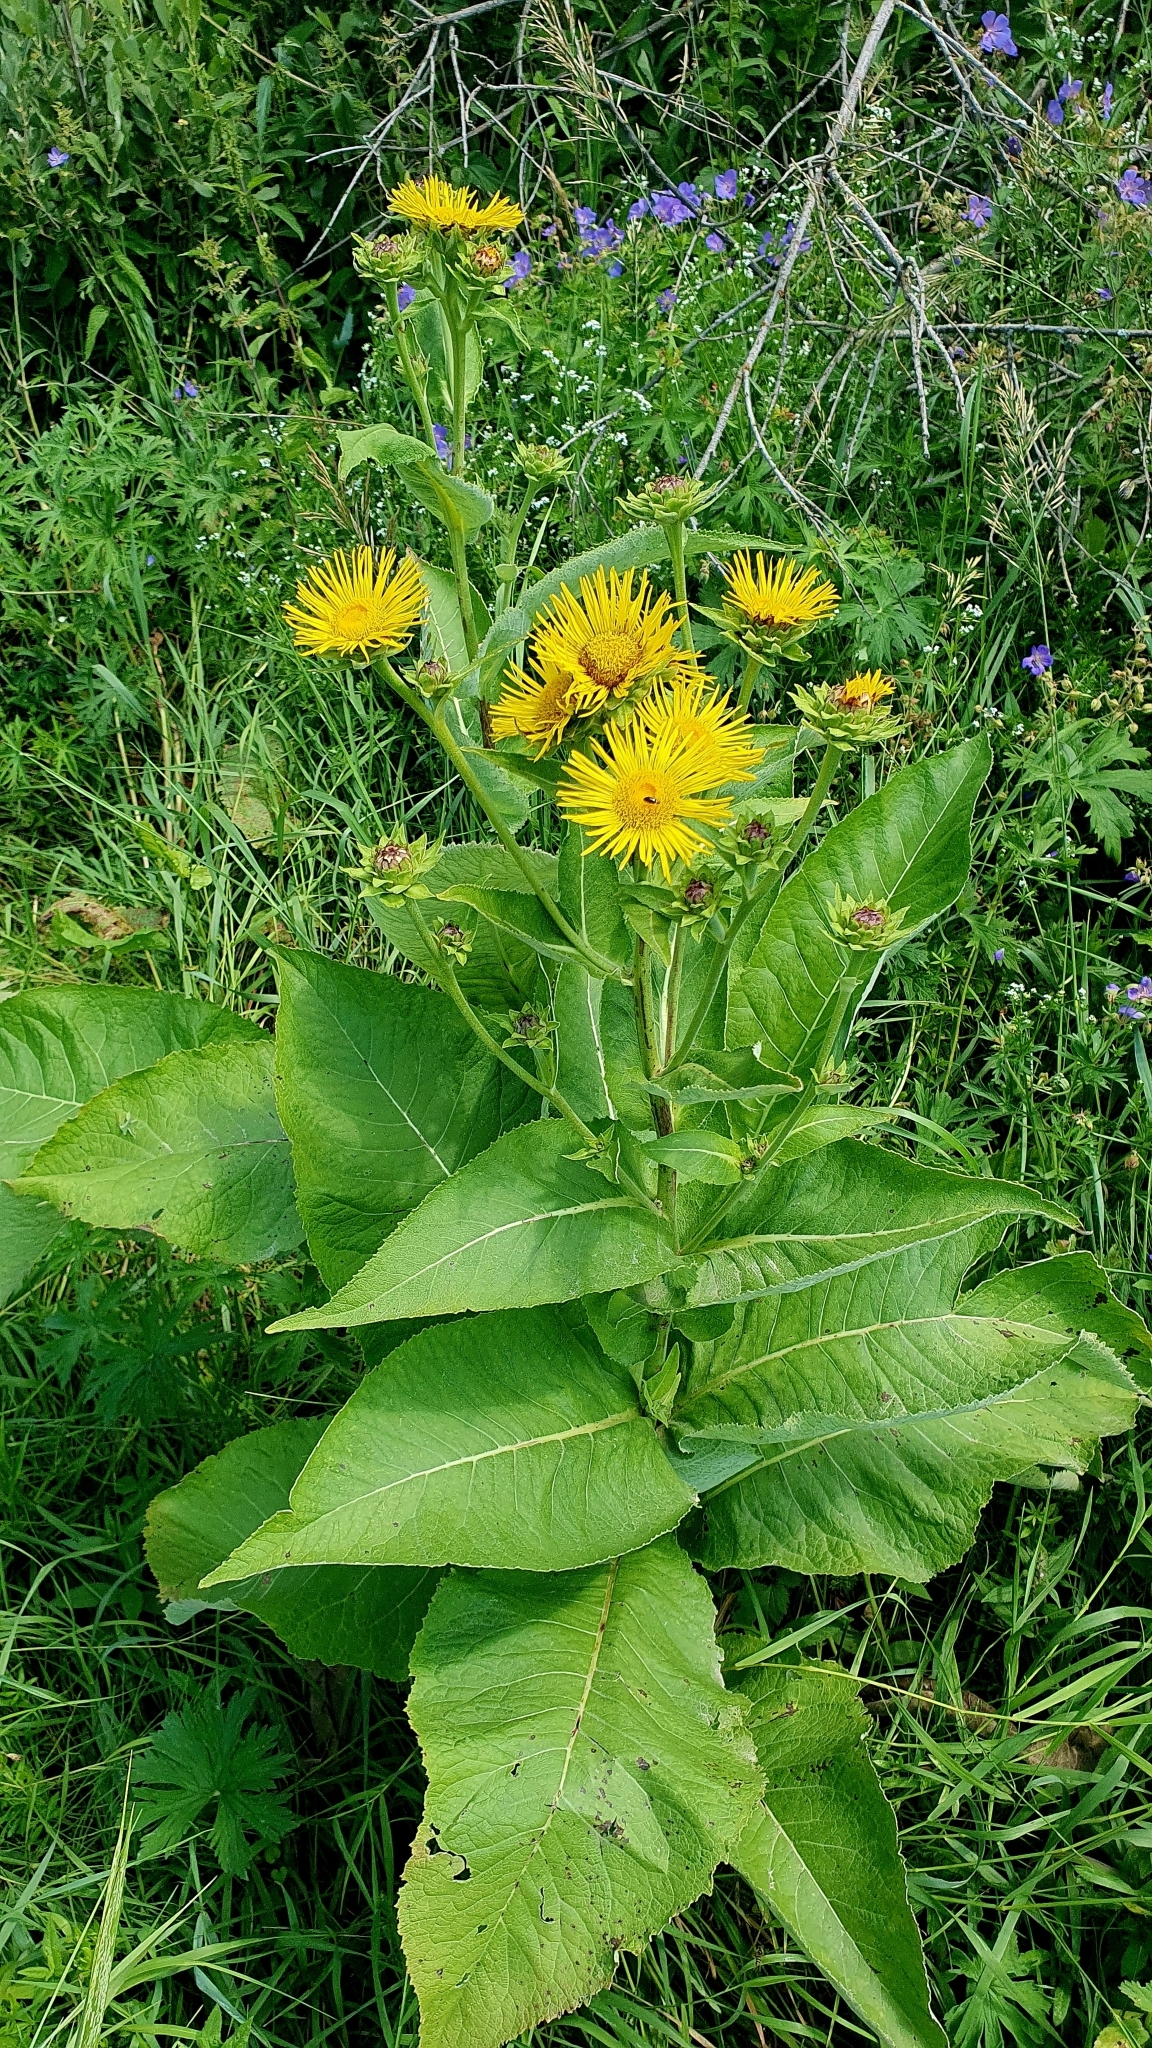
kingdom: Plantae
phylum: Tracheophyta
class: Magnoliopsida
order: Asterales
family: Asteraceae
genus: Inula
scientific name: Inula helenium
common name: Elecampane
